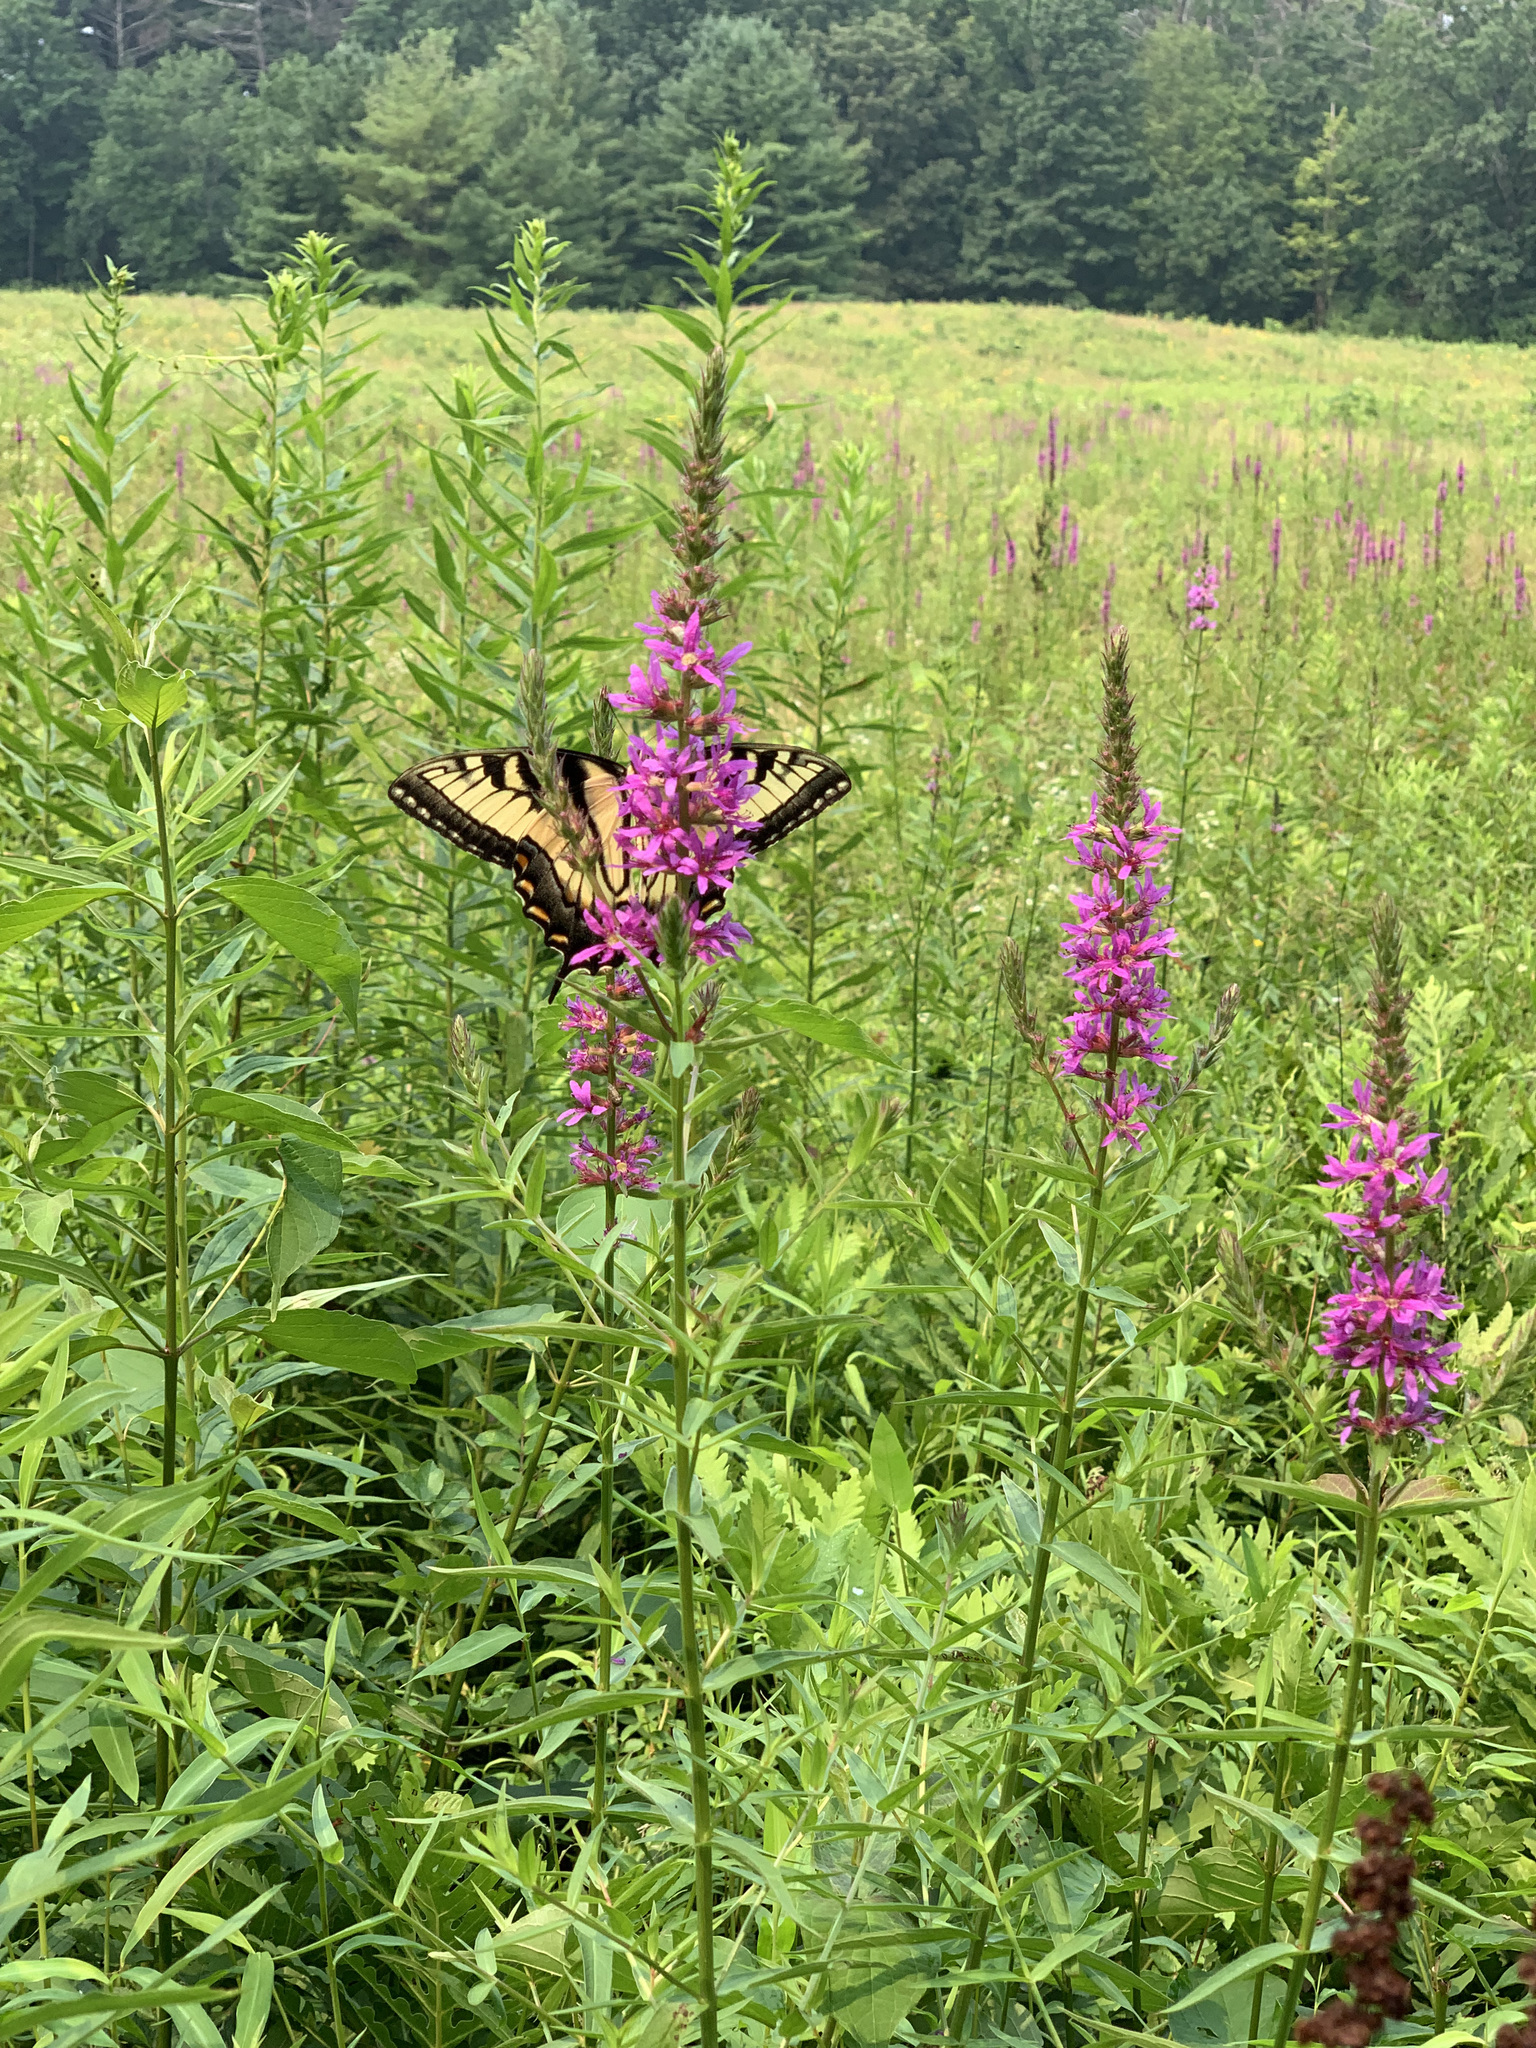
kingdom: Animalia
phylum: Arthropoda
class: Insecta
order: Lepidoptera
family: Papilionidae
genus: Papilio
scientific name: Papilio glaucus
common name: Tiger swallowtail
